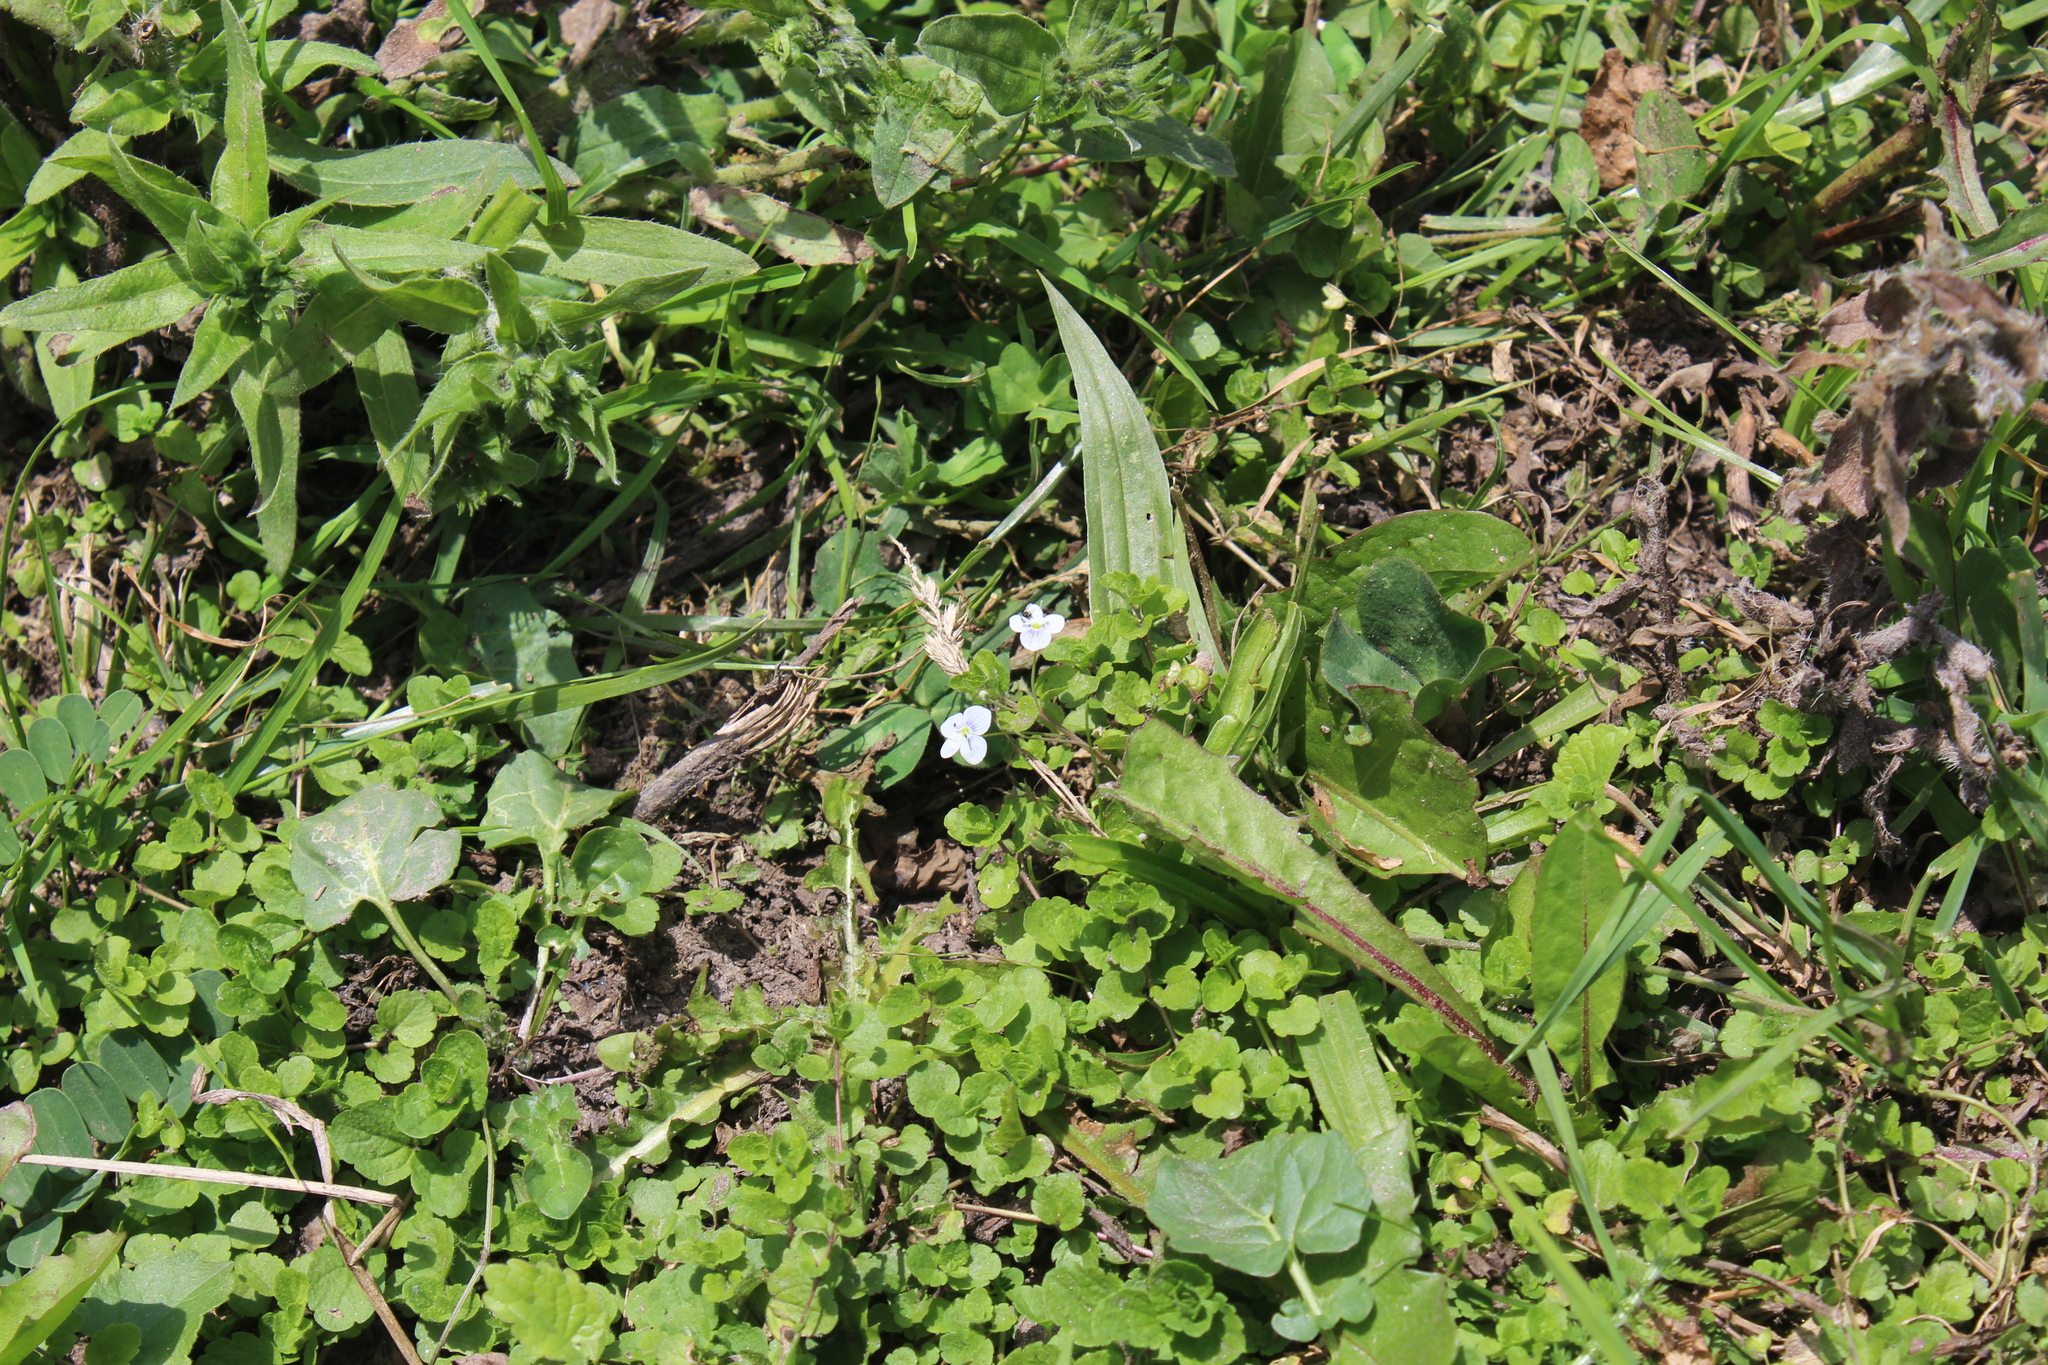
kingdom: Plantae
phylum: Tracheophyta
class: Magnoliopsida
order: Lamiales
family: Plantaginaceae
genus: Veronica
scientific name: Veronica filiformis
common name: Slender speedwell
